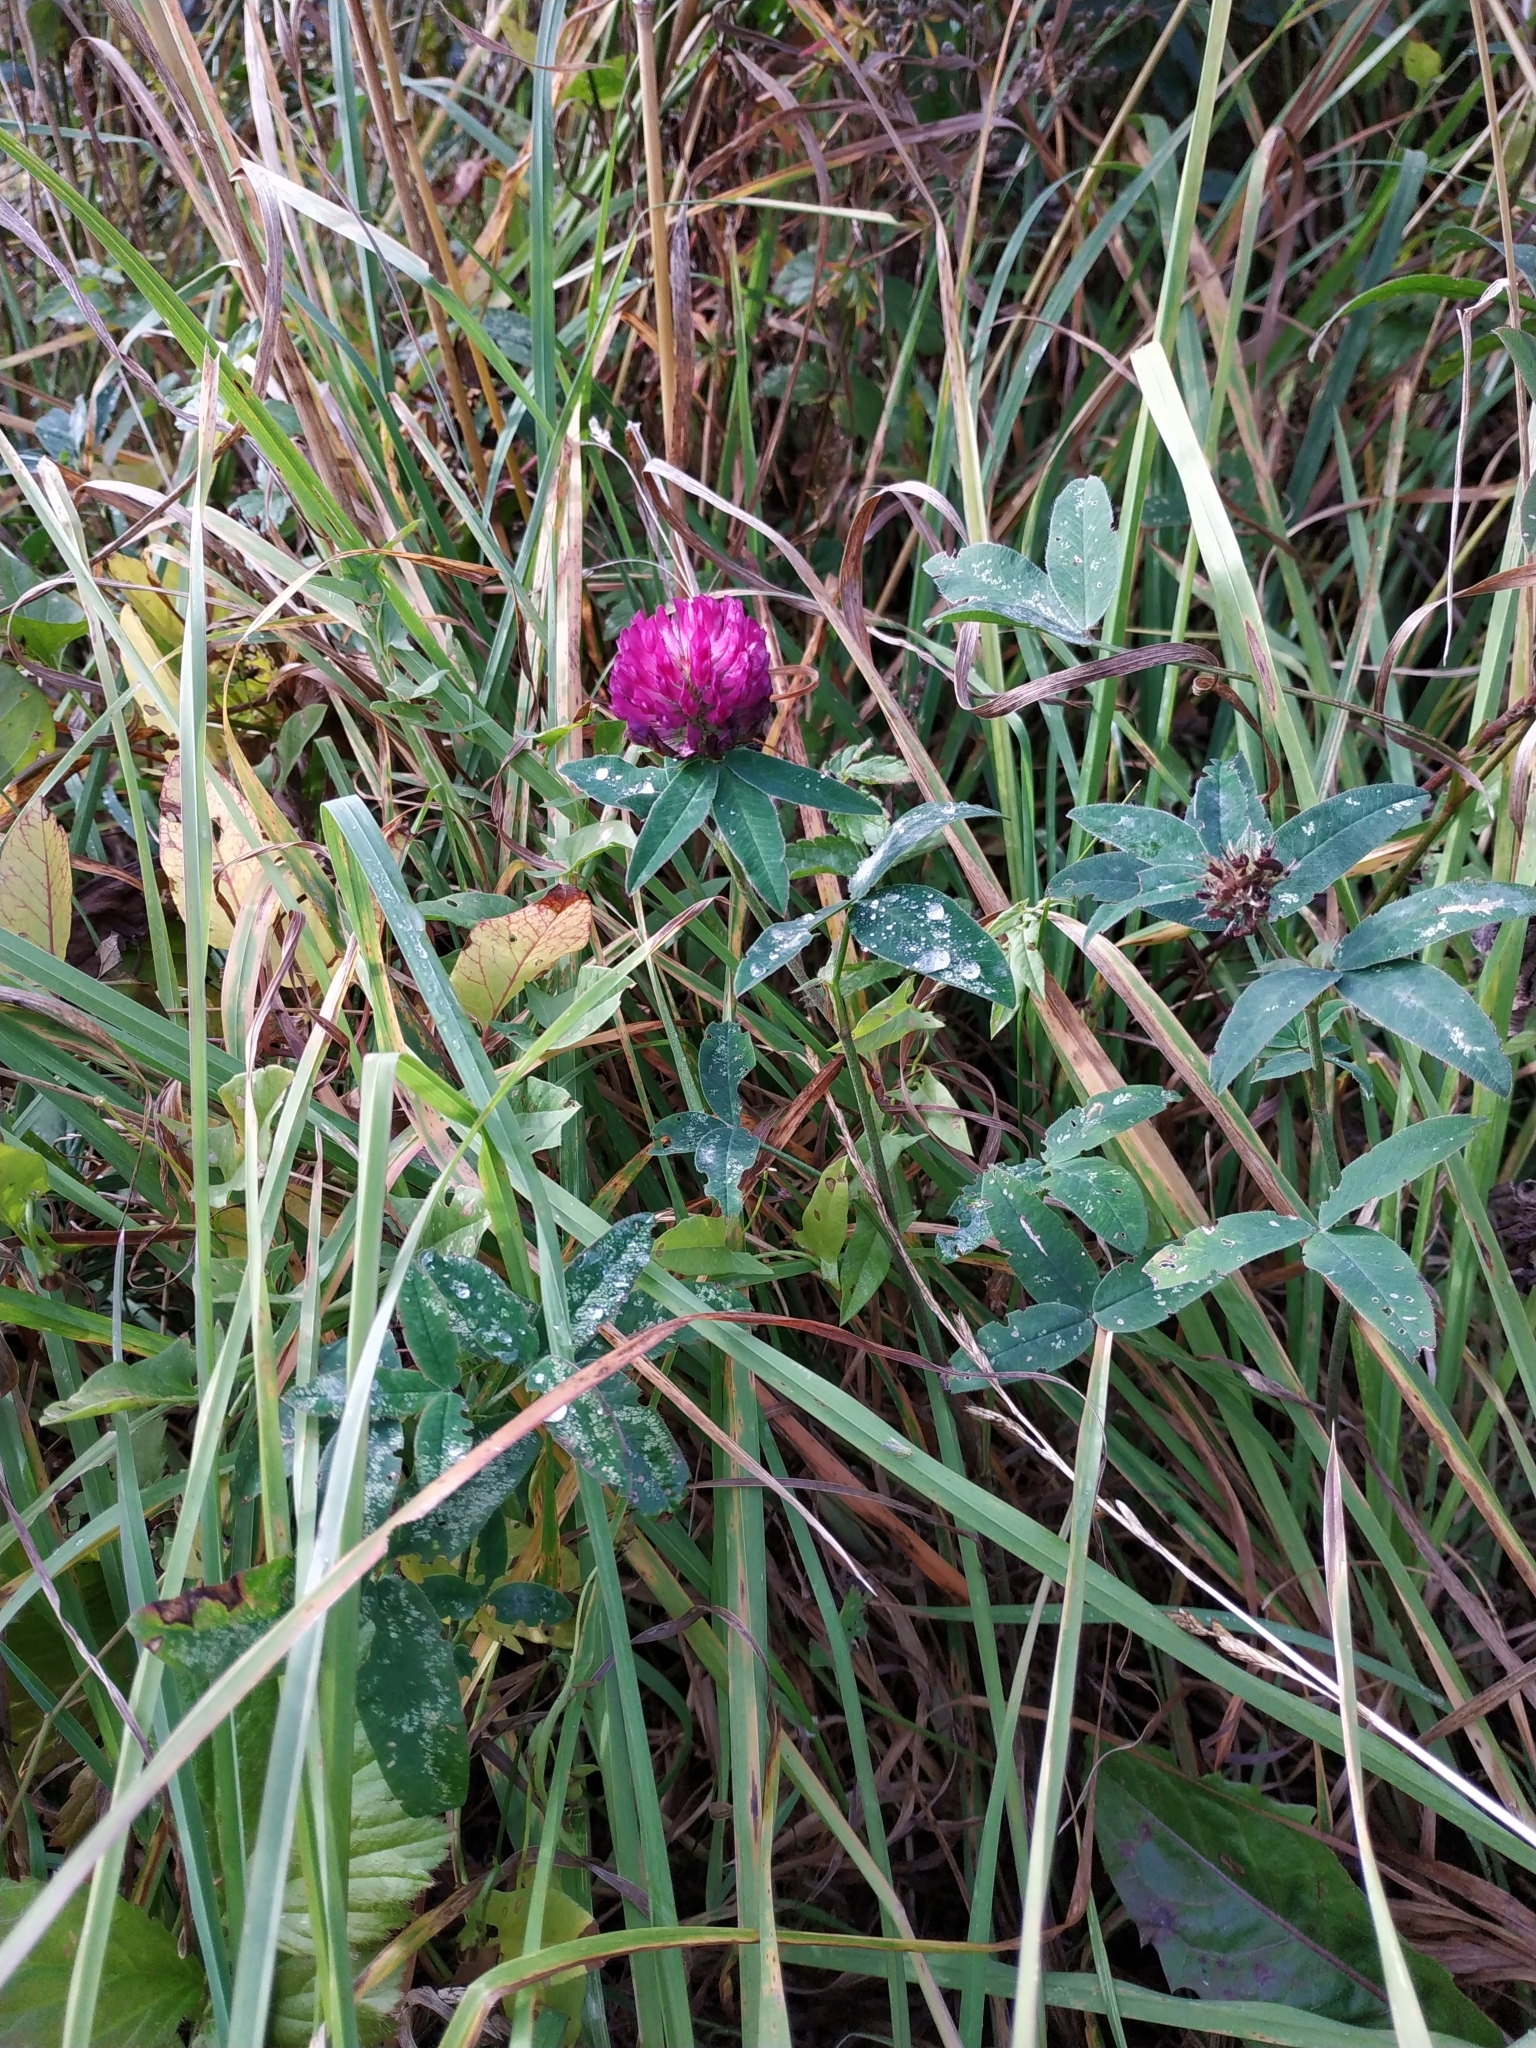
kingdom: Plantae
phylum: Tracheophyta
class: Magnoliopsida
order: Fabales
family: Fabaceae
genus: Trifolium
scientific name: Trifolium medium
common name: Zigzag clover
